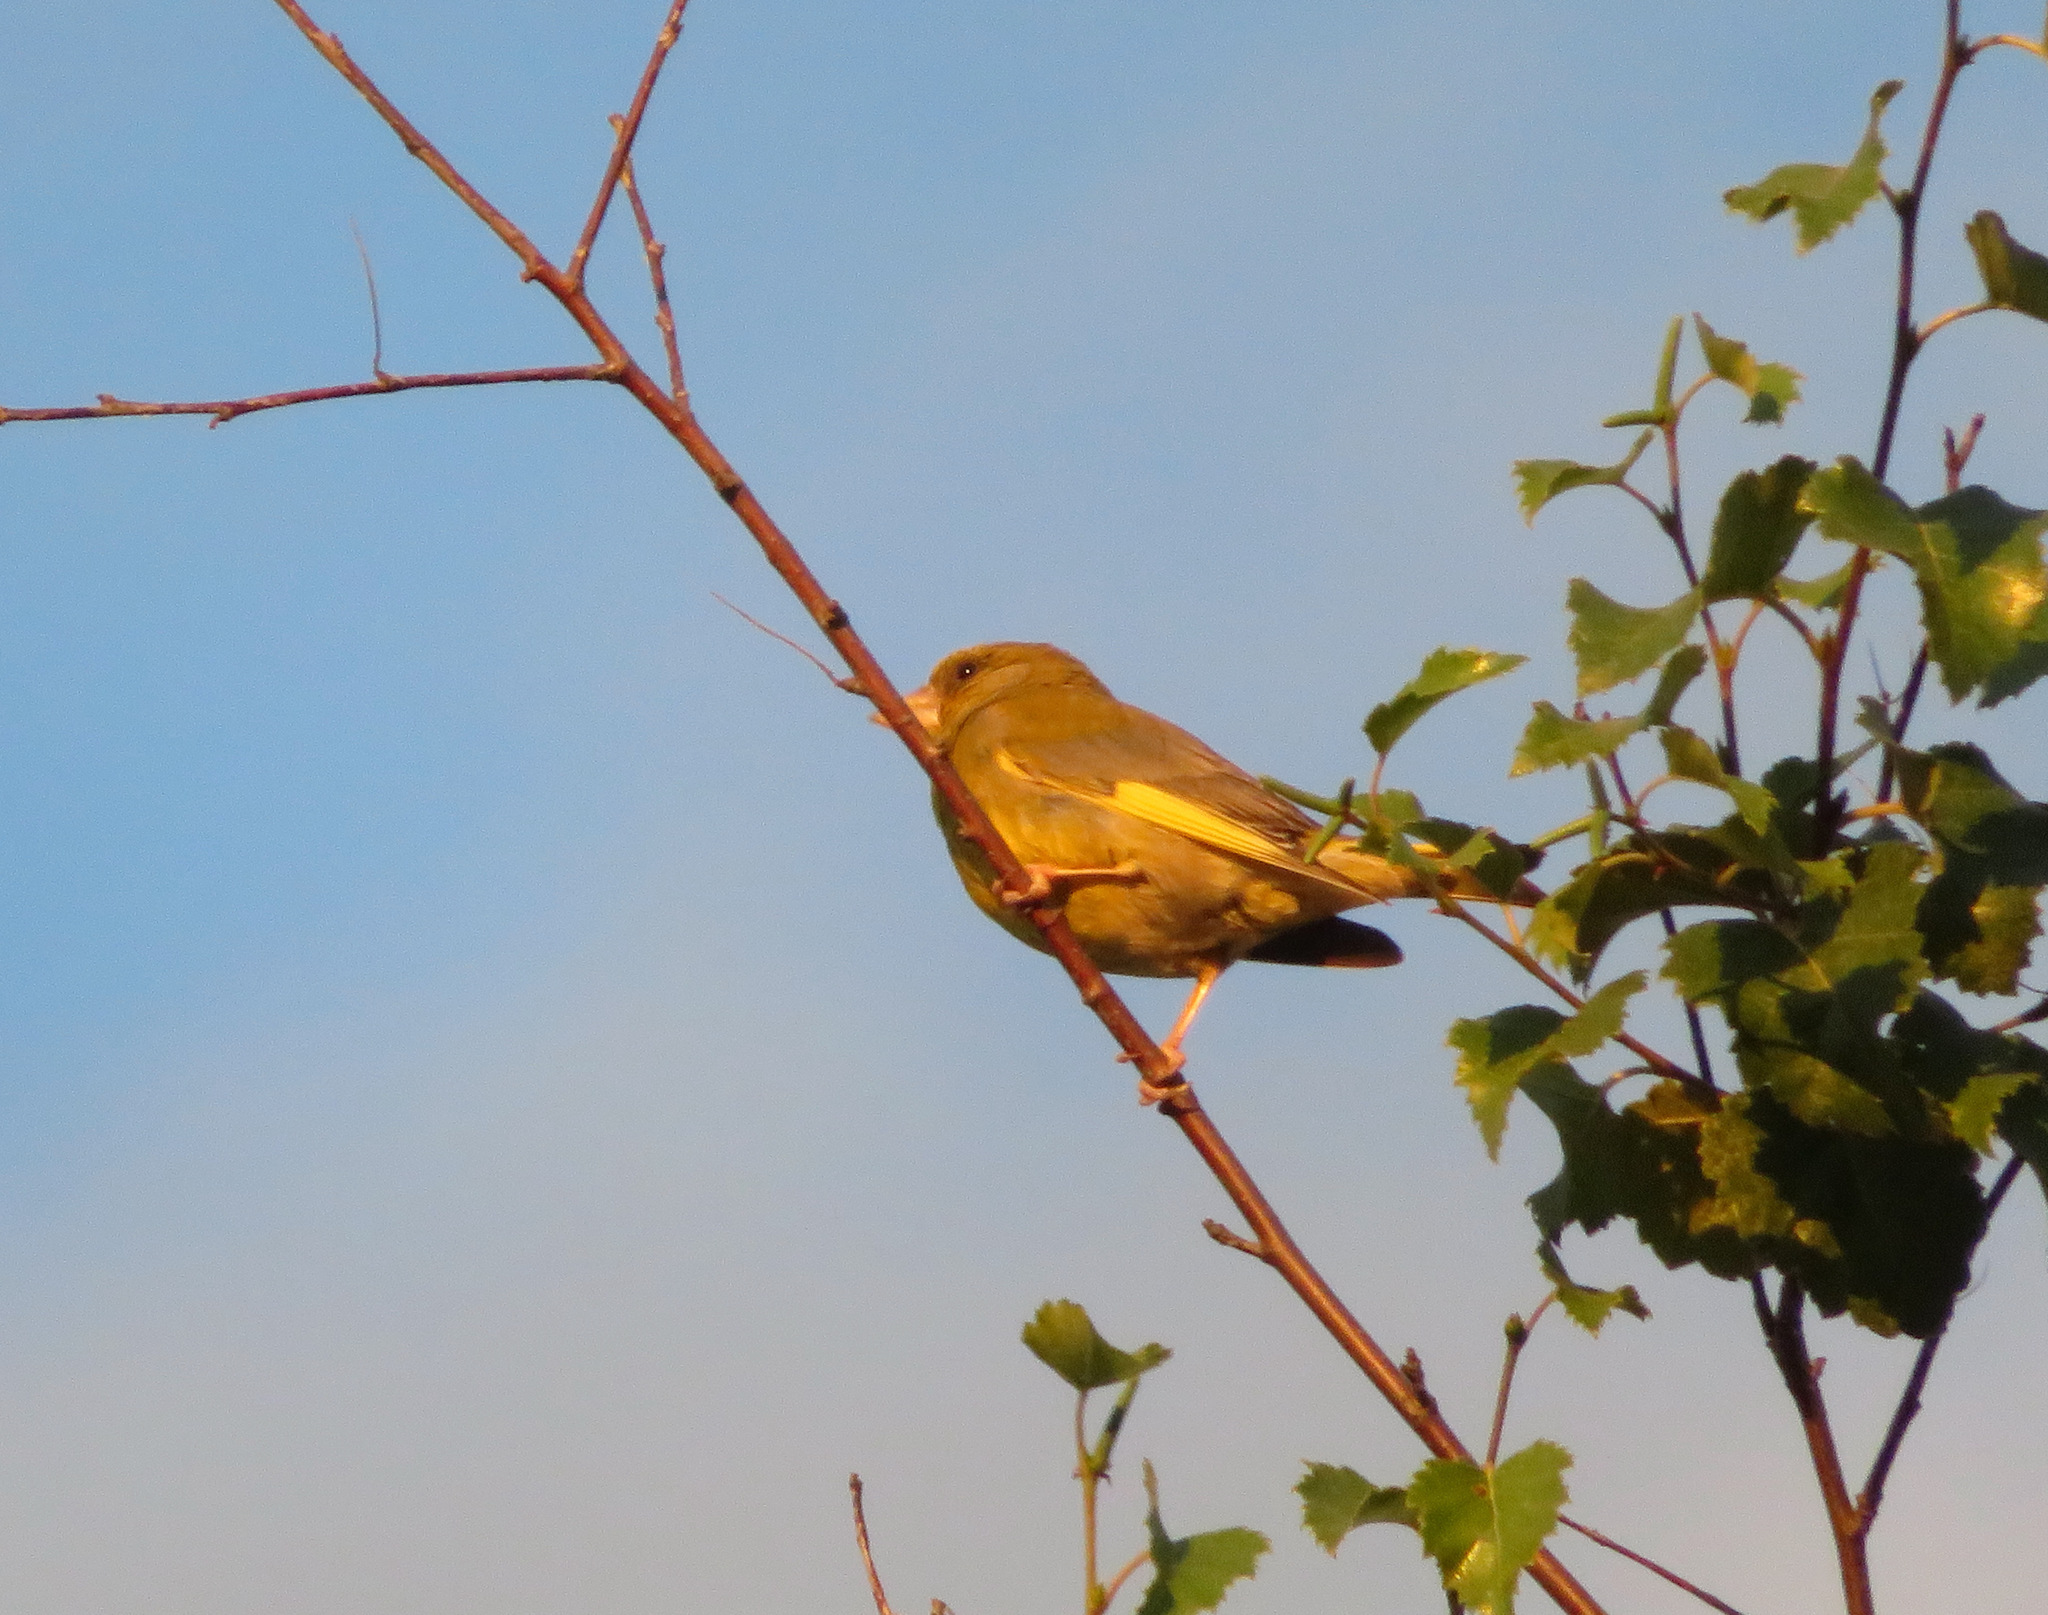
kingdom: Plantae
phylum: Tracheophyta
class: Liliopsida
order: Poales
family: Poaceae
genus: Chloris
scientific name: Chloris chloris
